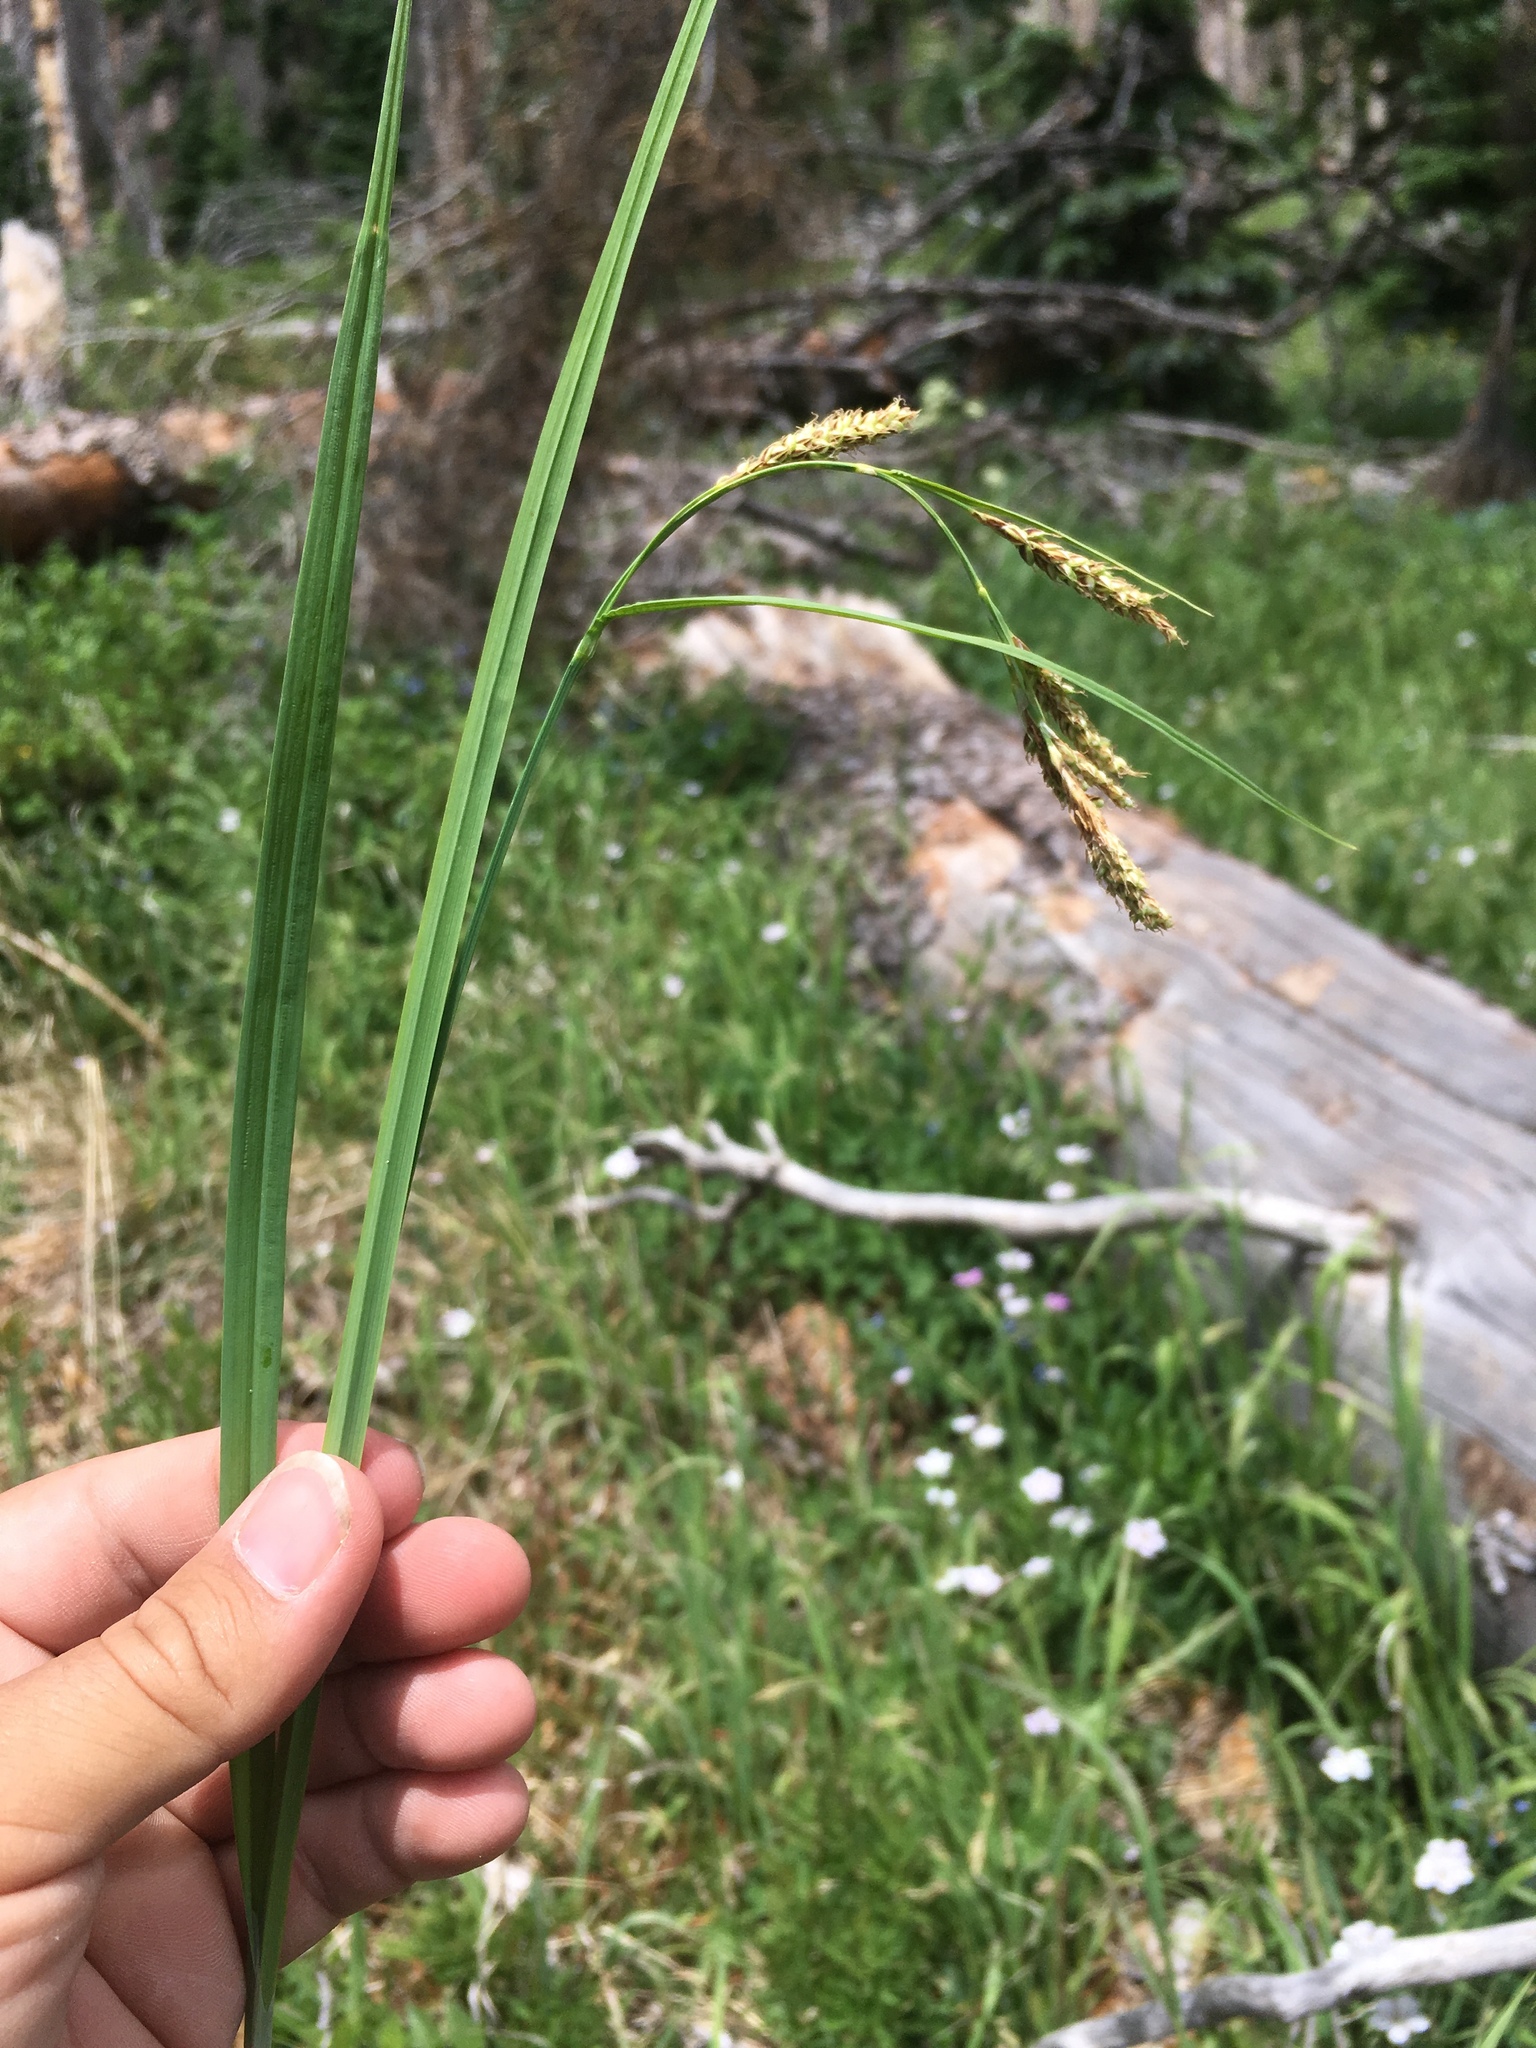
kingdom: Plantae
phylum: Tracheophyta
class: Liliopsida
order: Poales
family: Cyperaceae
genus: Carex
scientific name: Carex bella
